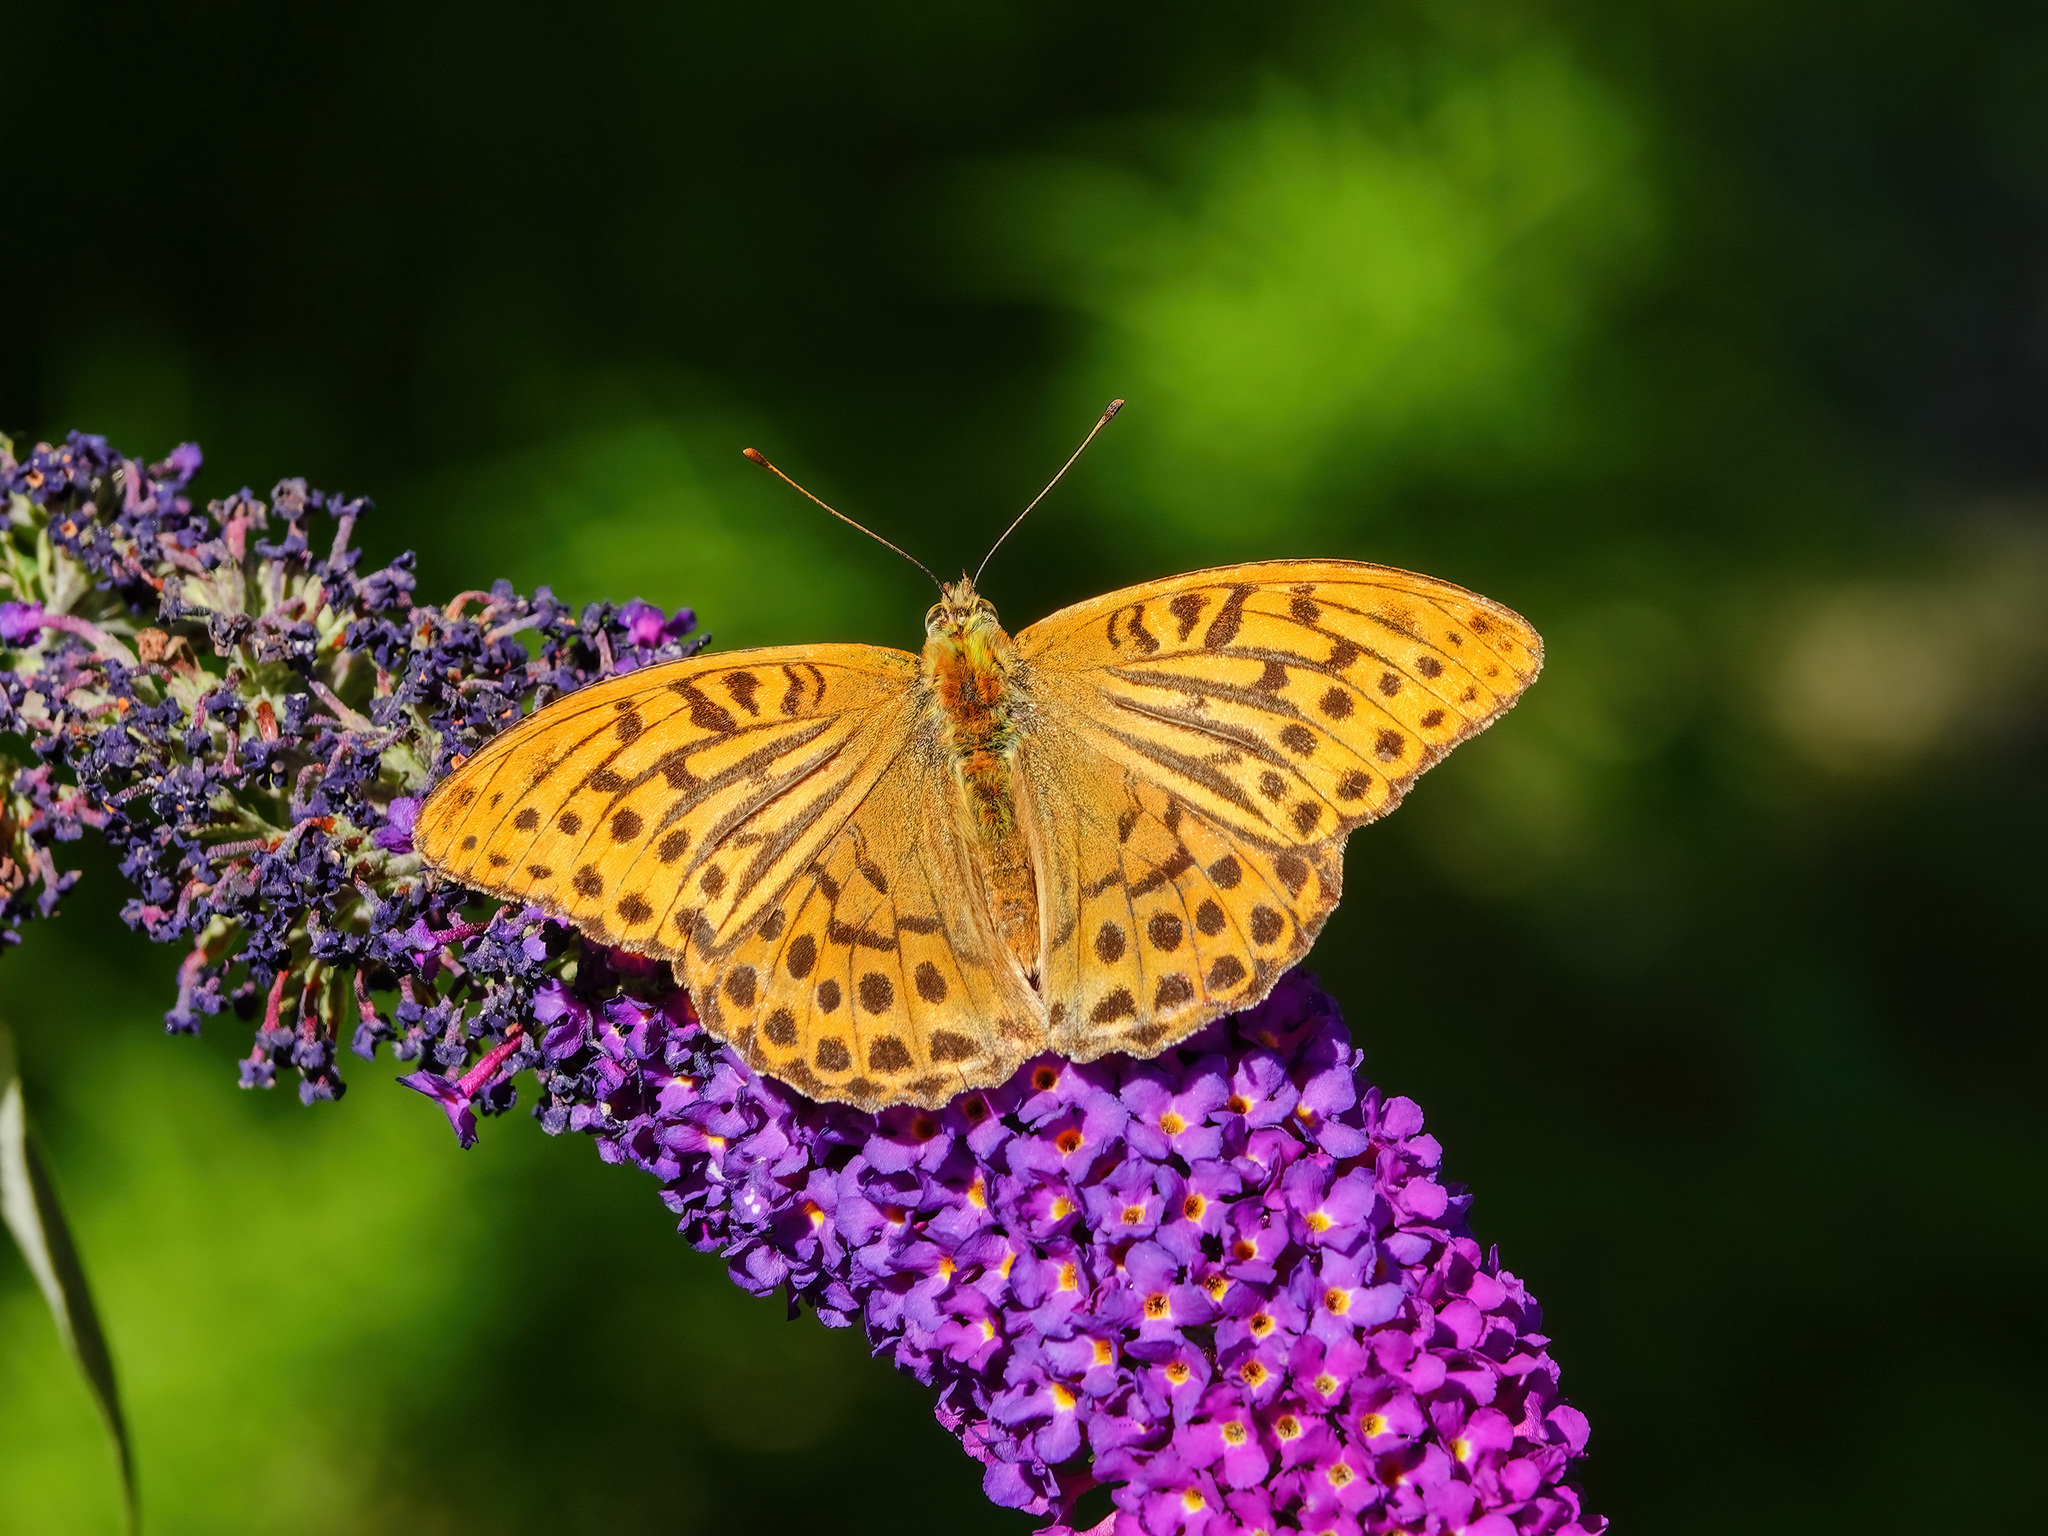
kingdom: Animalia
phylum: Arthropoda
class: Insecta
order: Lepidoptera
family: Nymphalidae
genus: Argynnis
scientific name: Argynnis paphia
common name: Silver-washed fritillary
